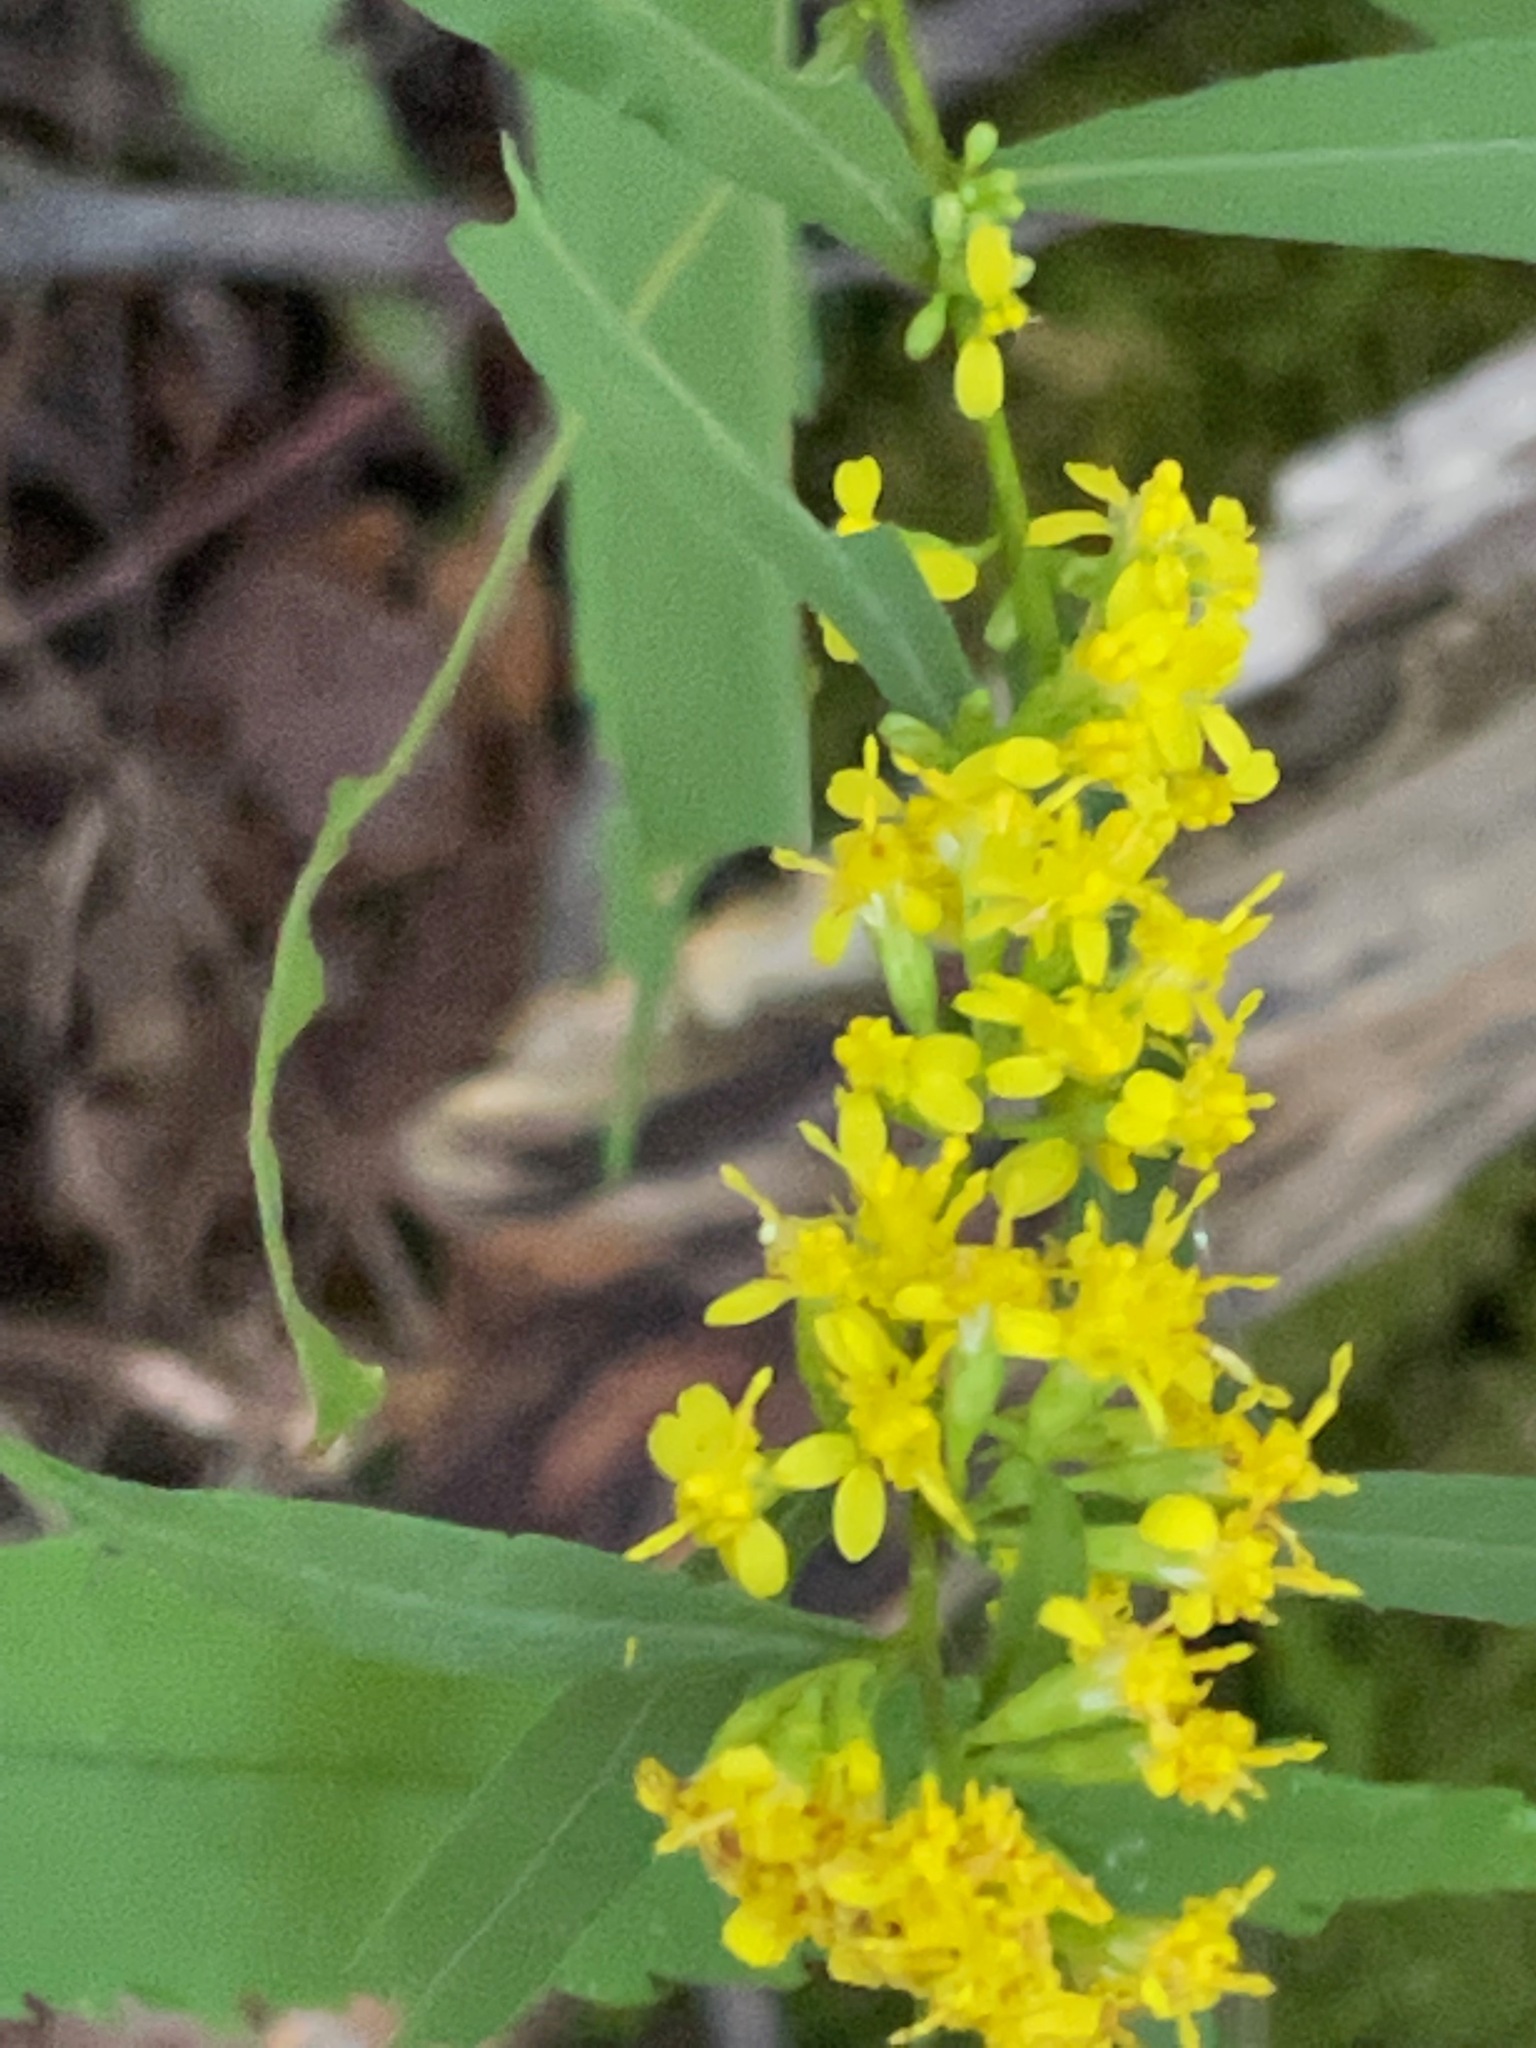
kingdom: Plantae
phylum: Tracheophyta
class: Magnoliopsida
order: Asterales
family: Asteraceae
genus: Solidago
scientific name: Solidago caesia
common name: Woodland goldenrod
